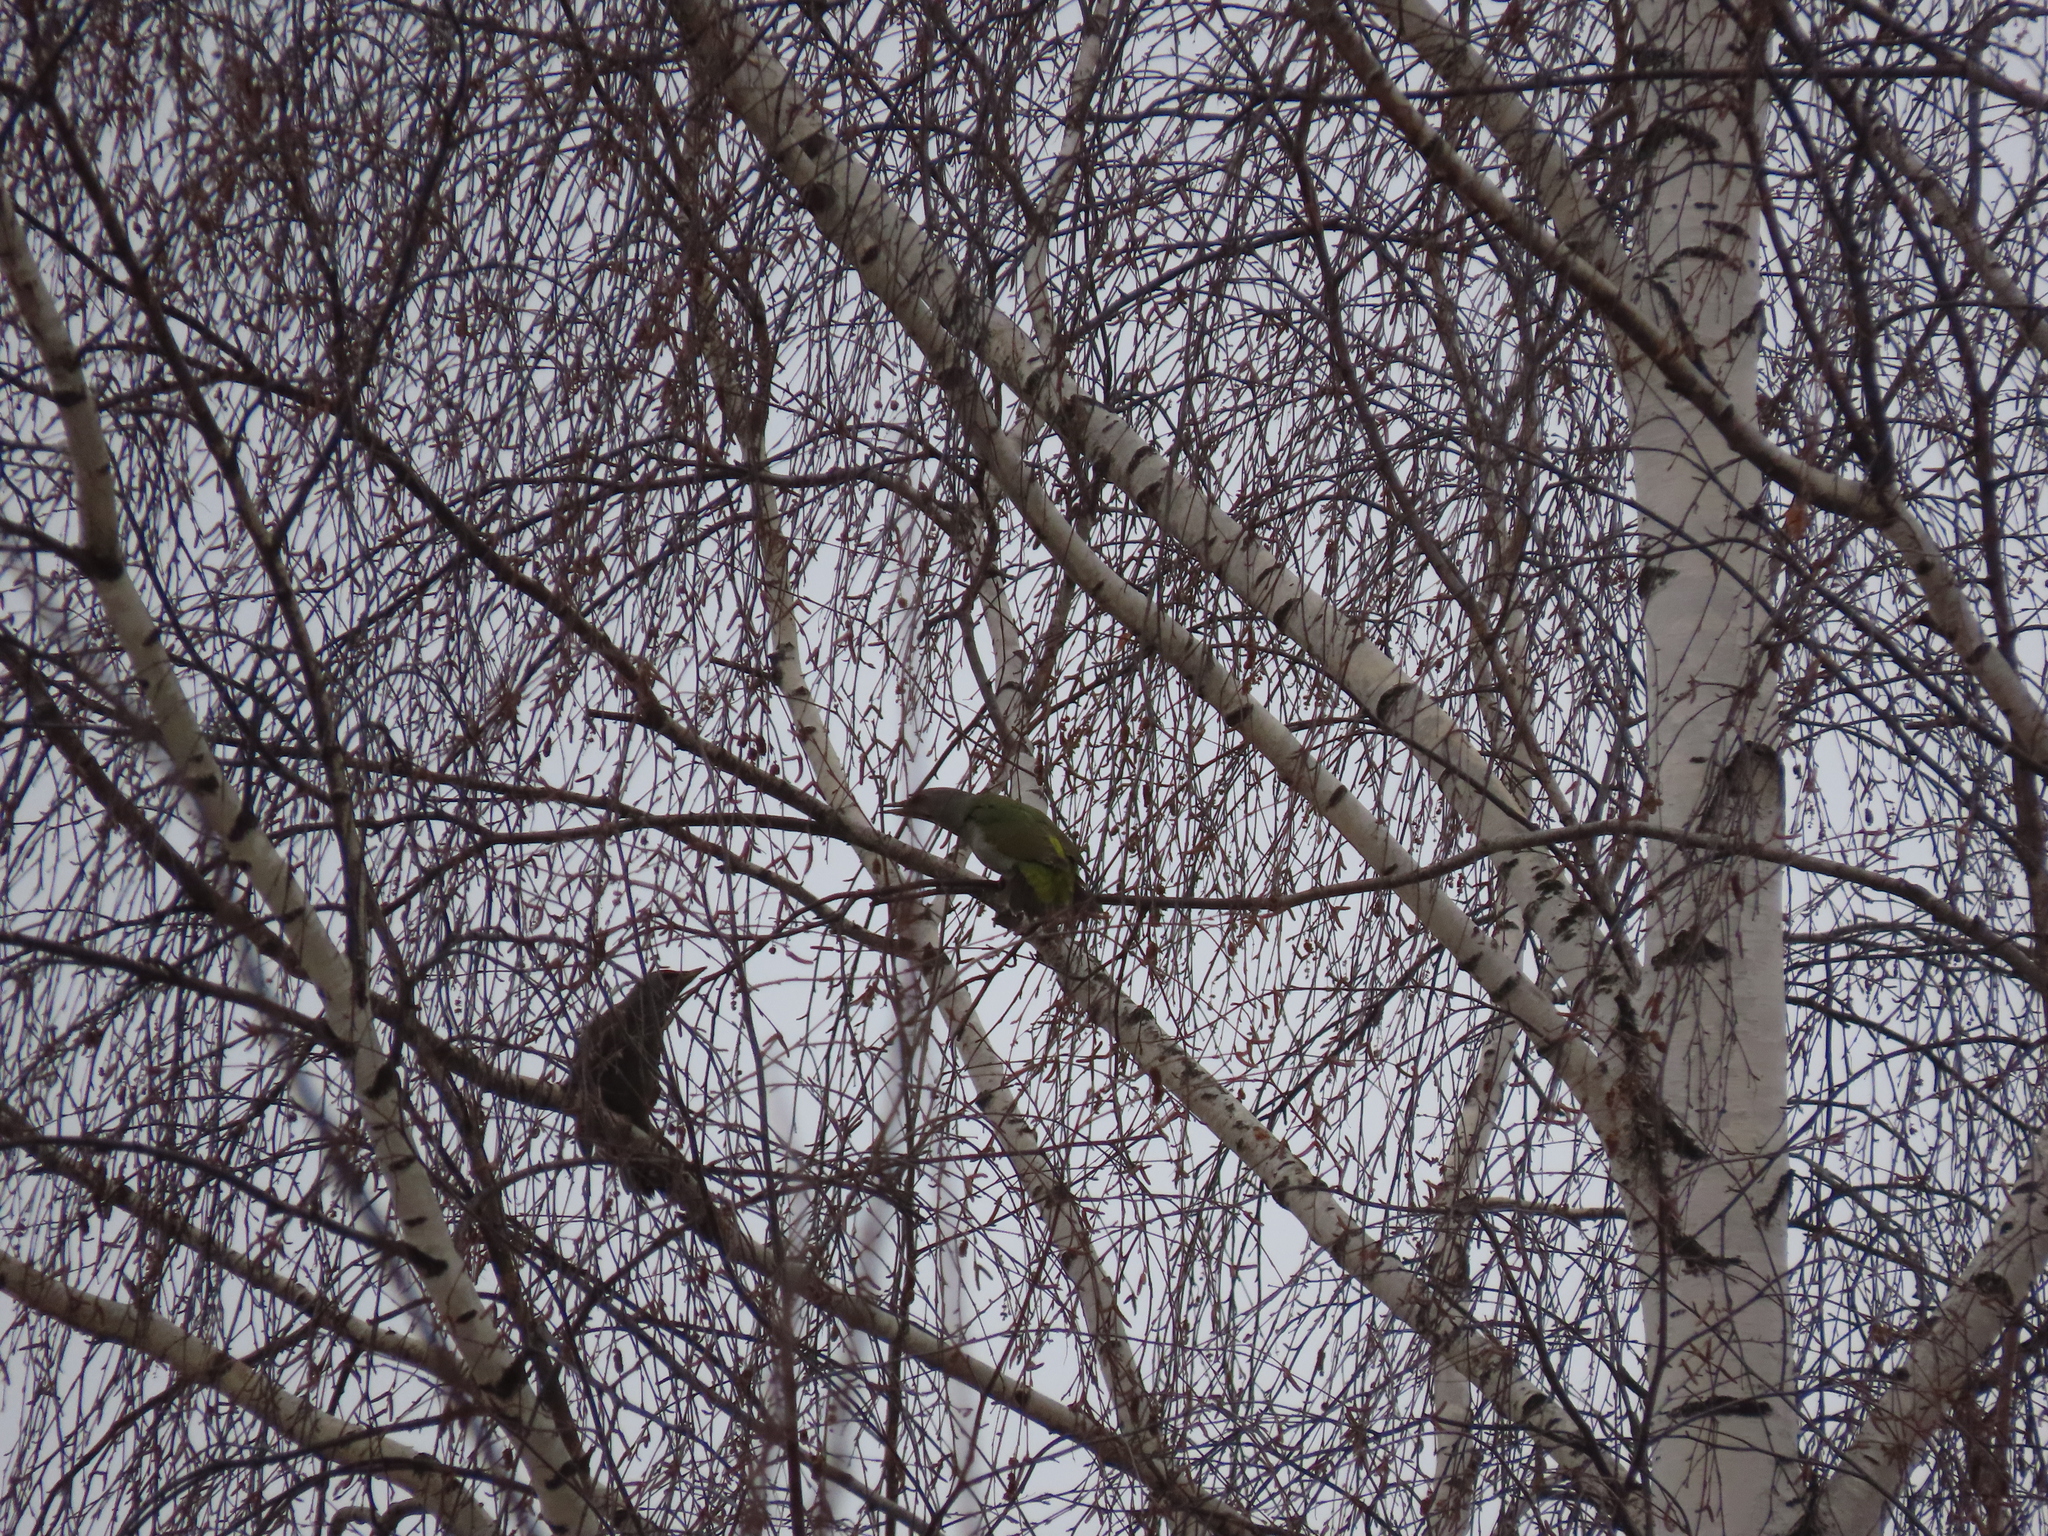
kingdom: Animalia
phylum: Chordata
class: Aves
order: Piciformes
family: Picidae
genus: Picus
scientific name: Picus canus
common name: Grey-headed woodpecker
